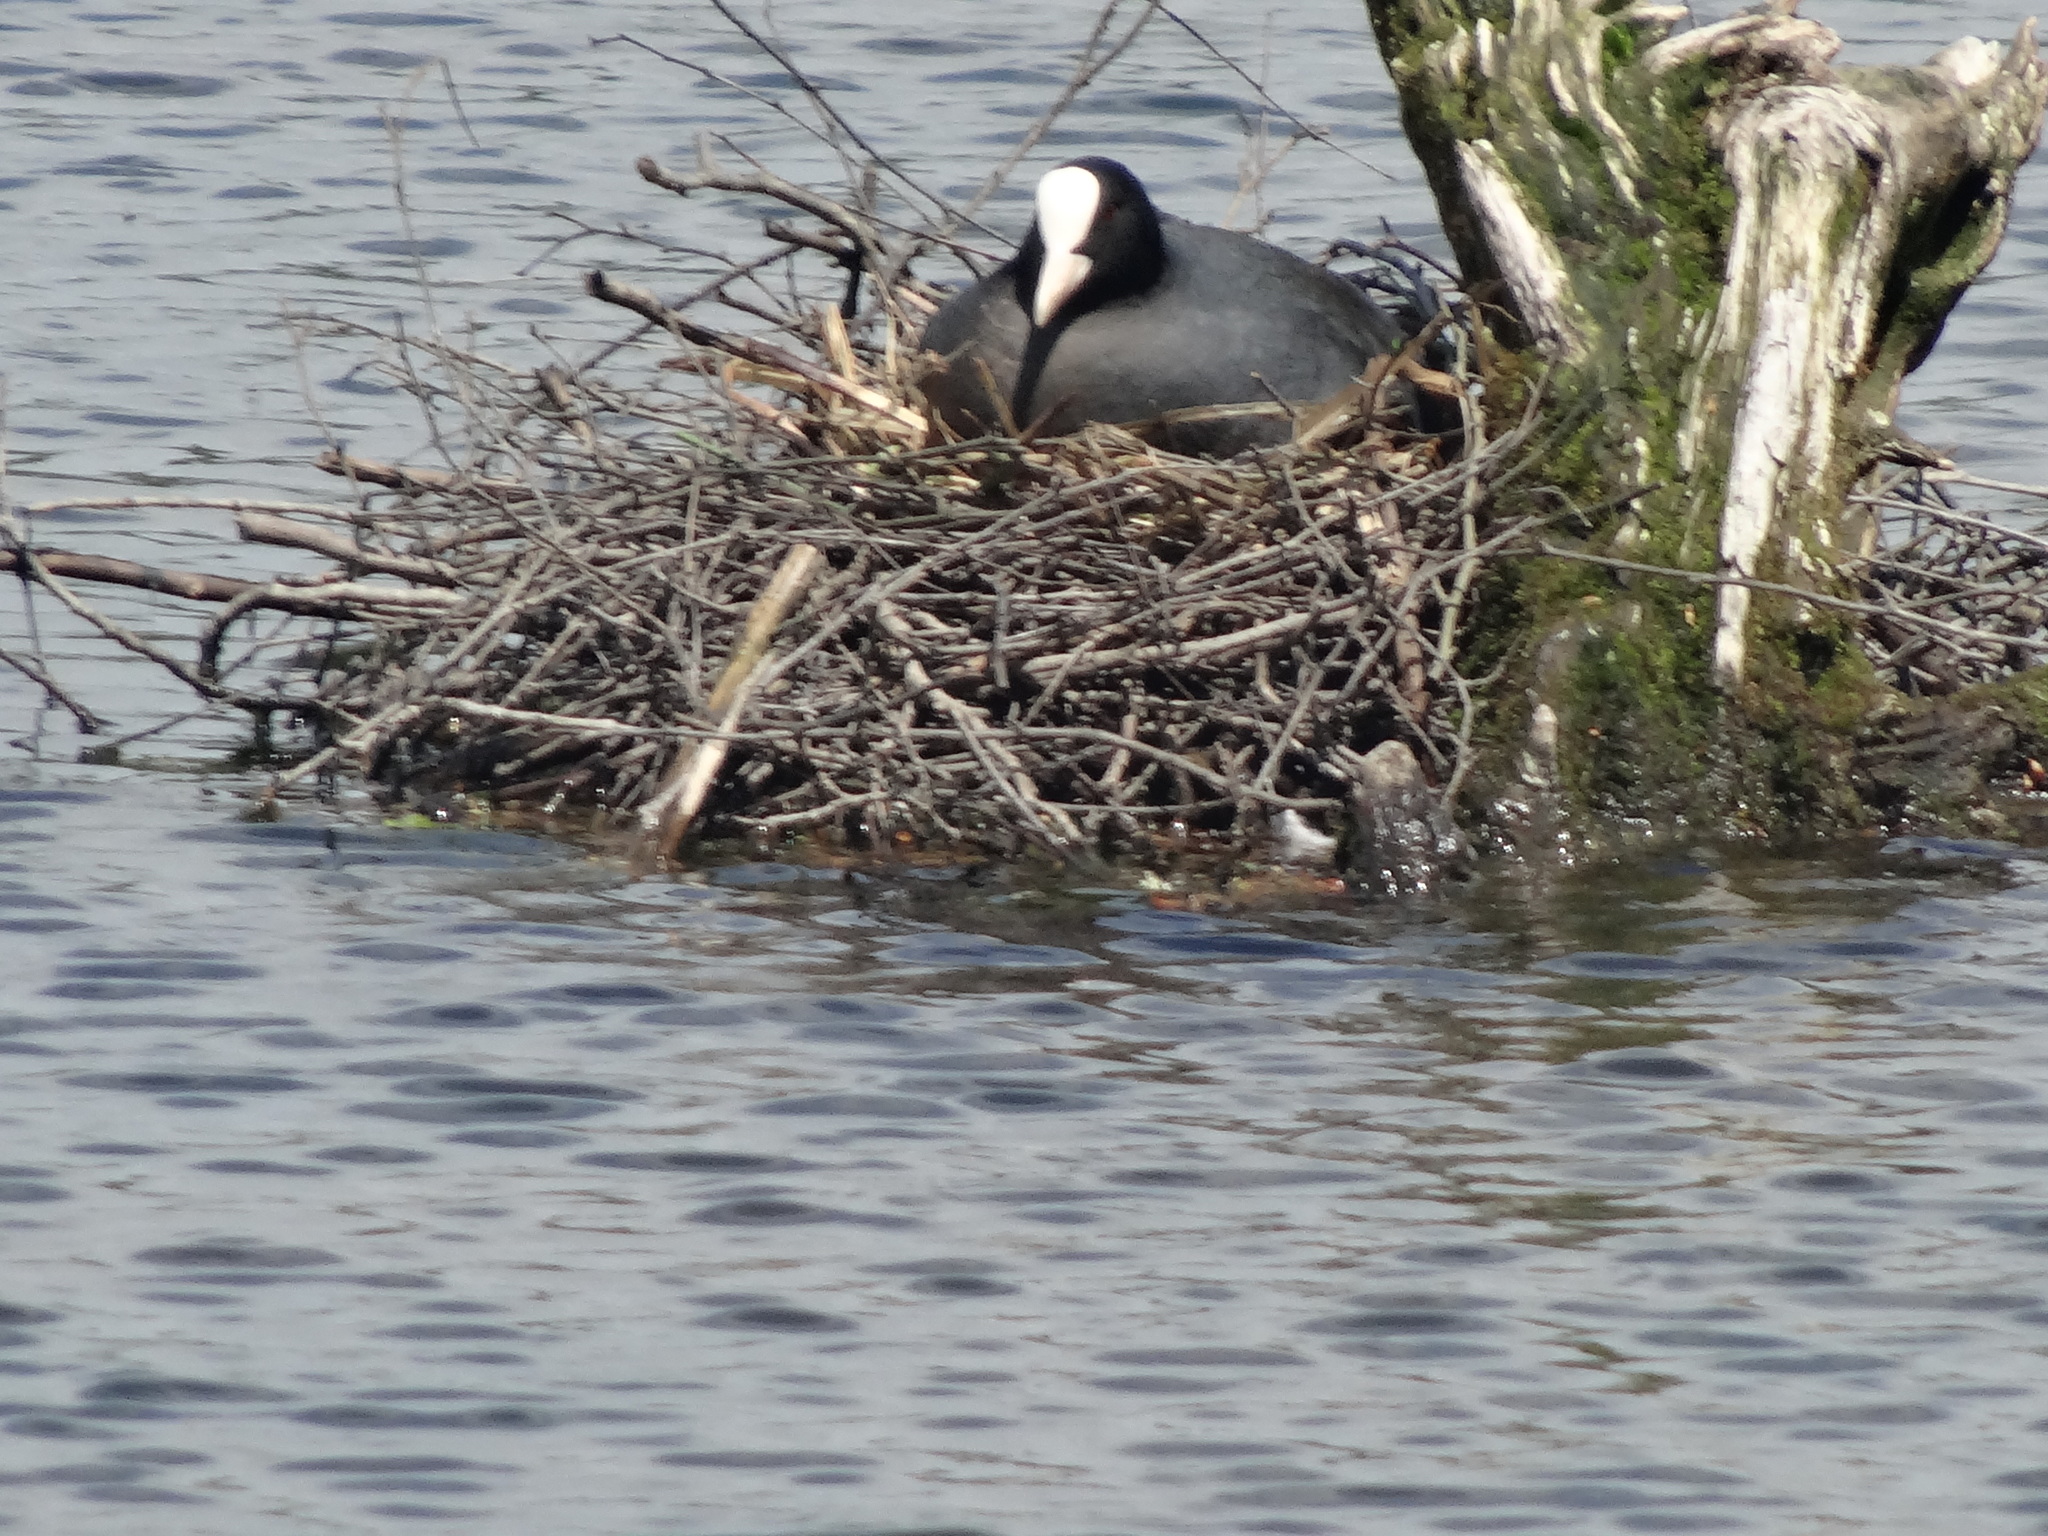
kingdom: Animalia
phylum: Chordata
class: Aves
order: Gruiformes
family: Rallidae
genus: Fulica
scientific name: Fulica atra
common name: Eurasian coot
